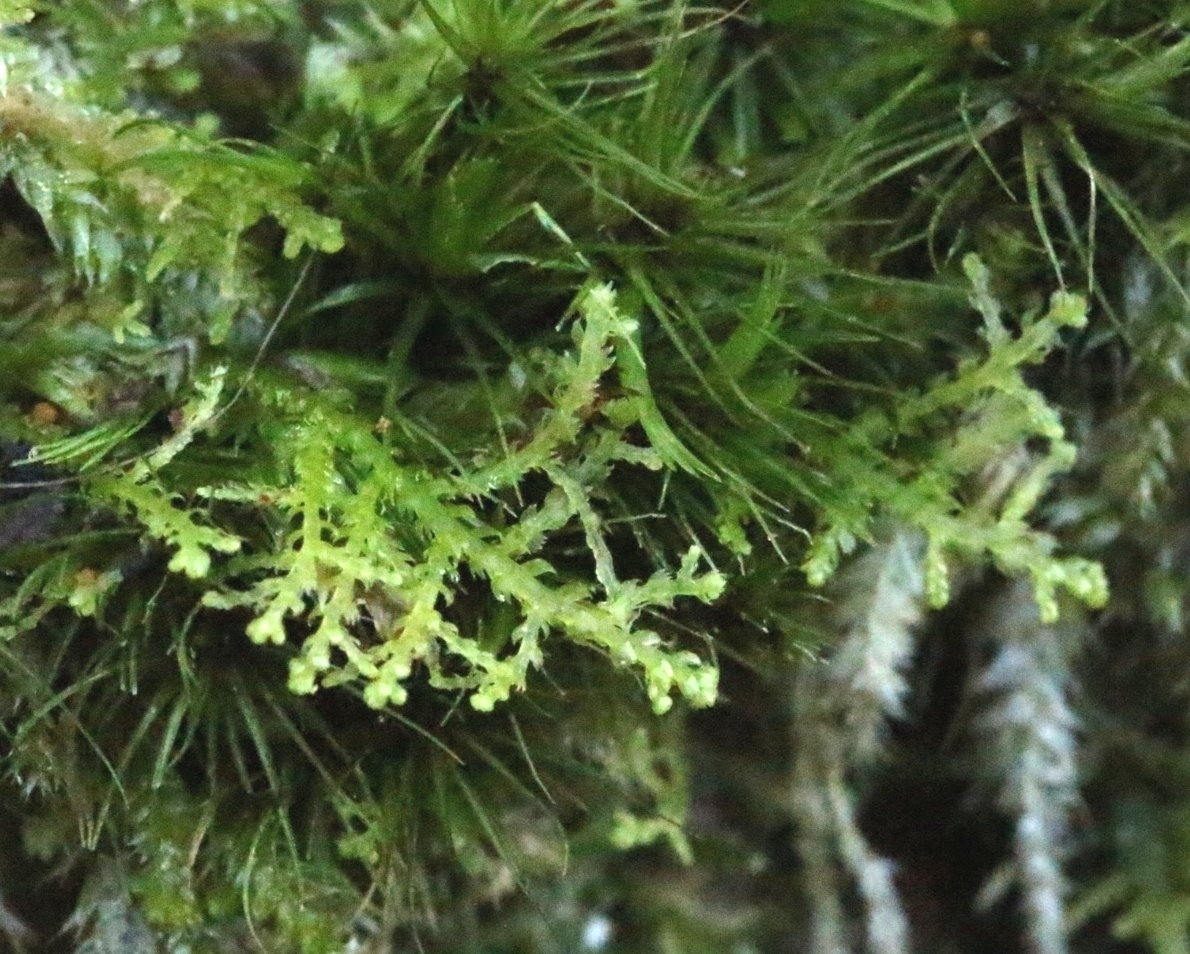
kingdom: Plantae
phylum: Marchantiophyta
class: Jungermanniopsida
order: Jungermanniales
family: Lepidoziaceae
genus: Lepidozia
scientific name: Lepidozia reptans
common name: Creeping fingerwort
